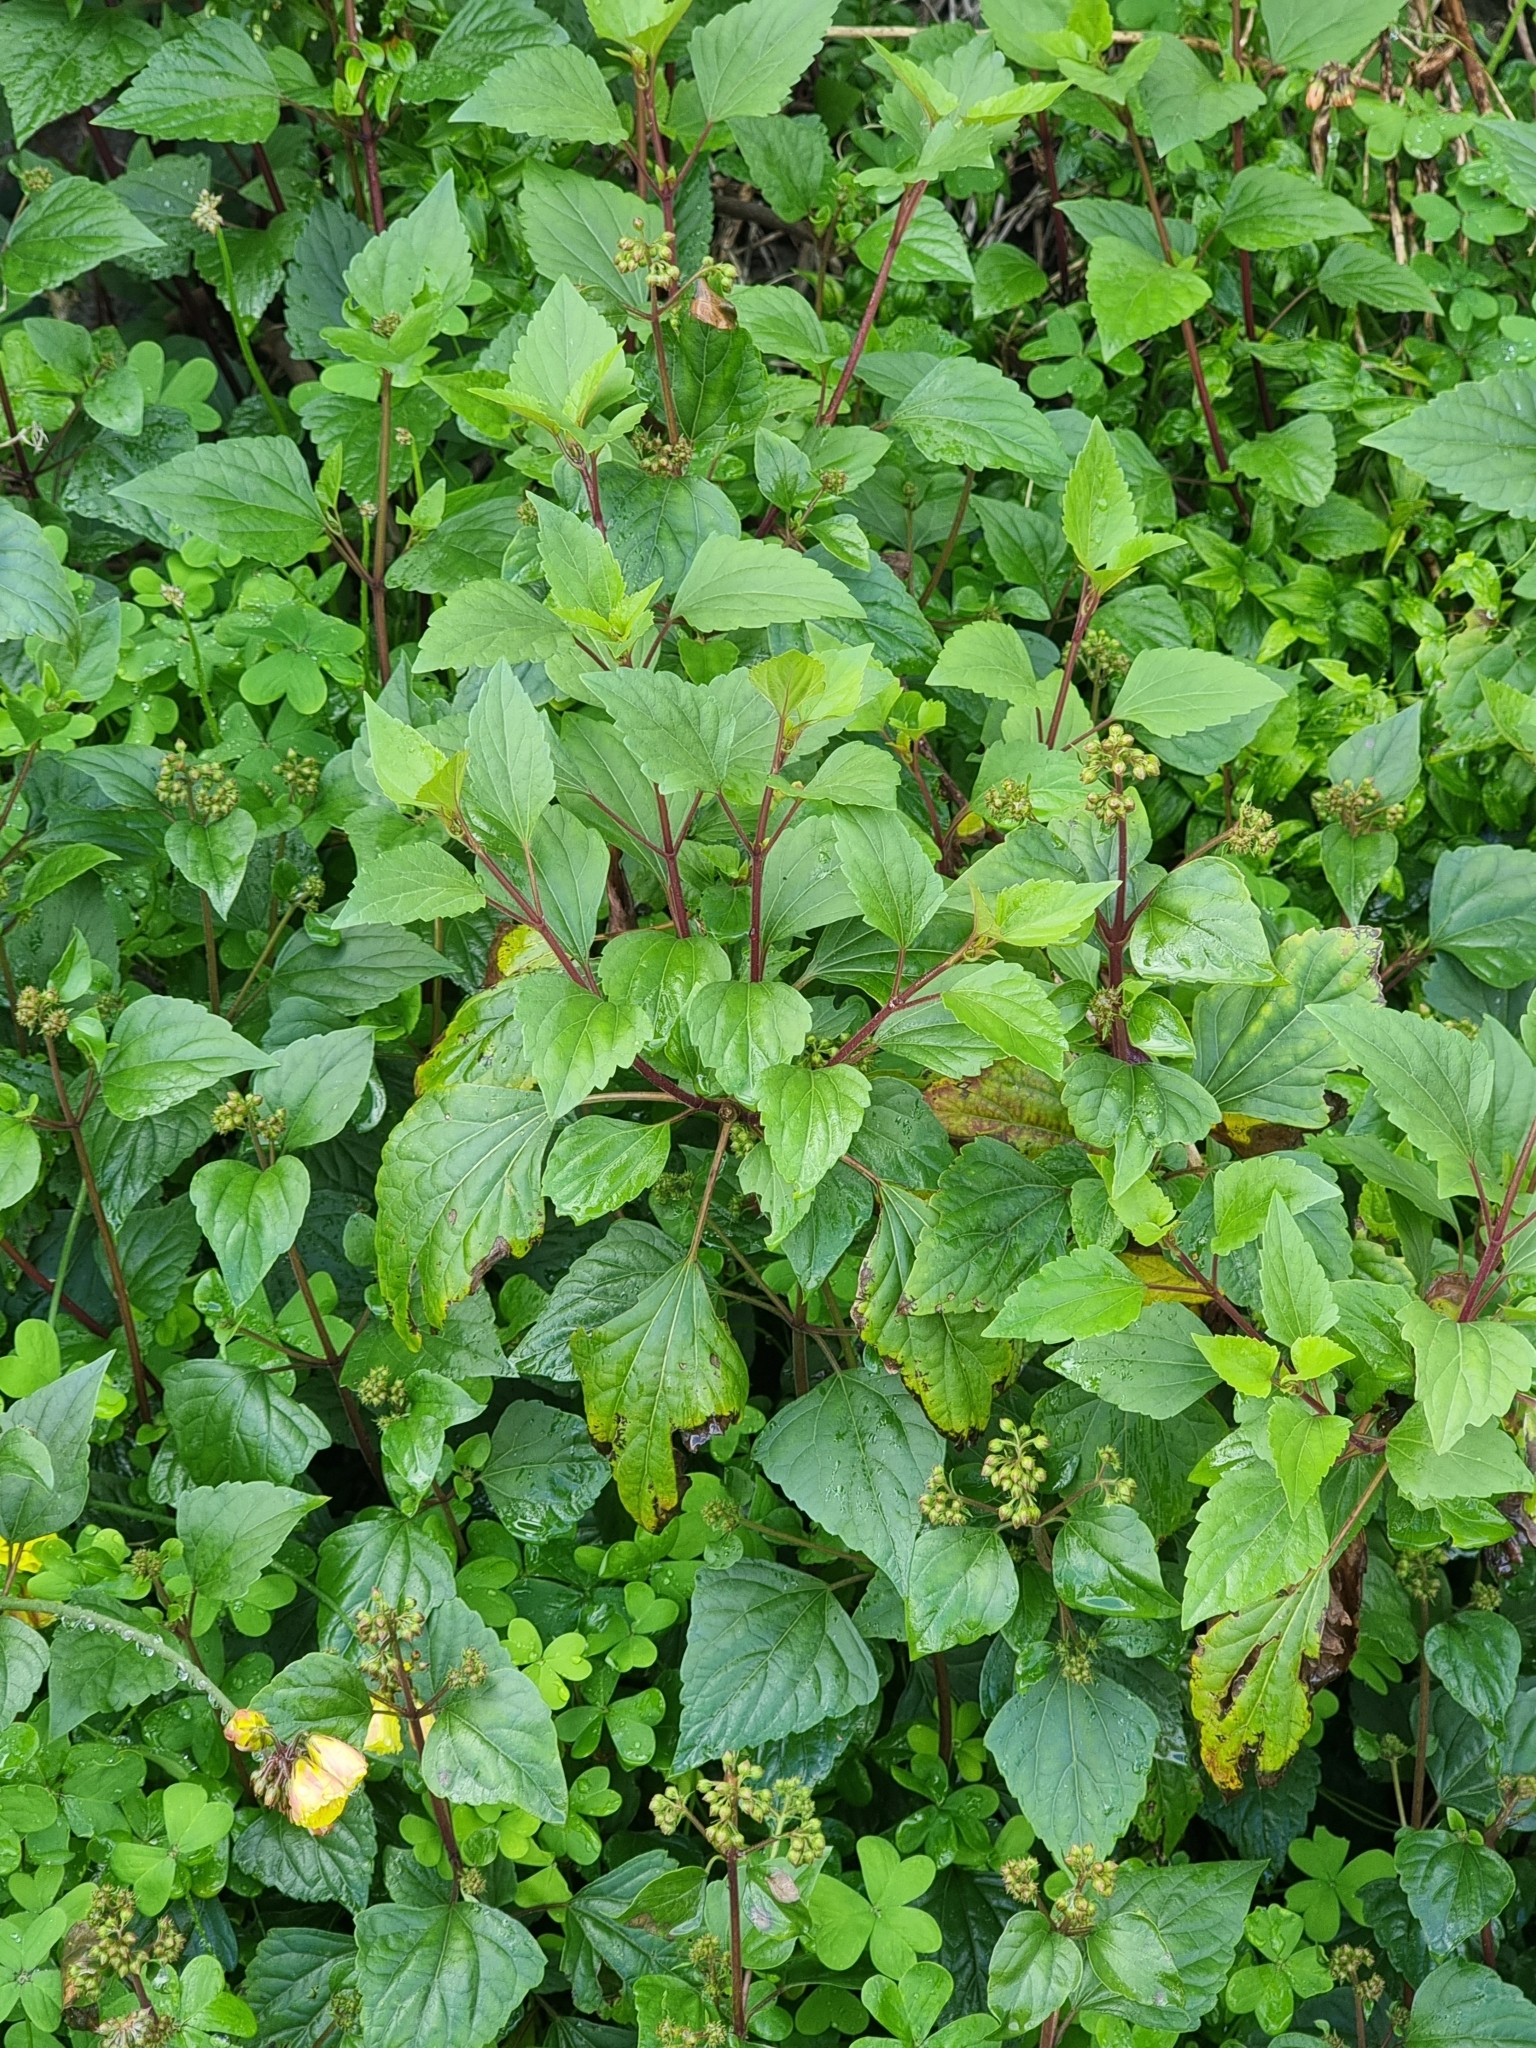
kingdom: Plantae
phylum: Tracheophyta
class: Magnoliopsida
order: Asterales
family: Asteraceae
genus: Ageratina
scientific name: Ageratina adenophora
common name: Sticky snakeroot
